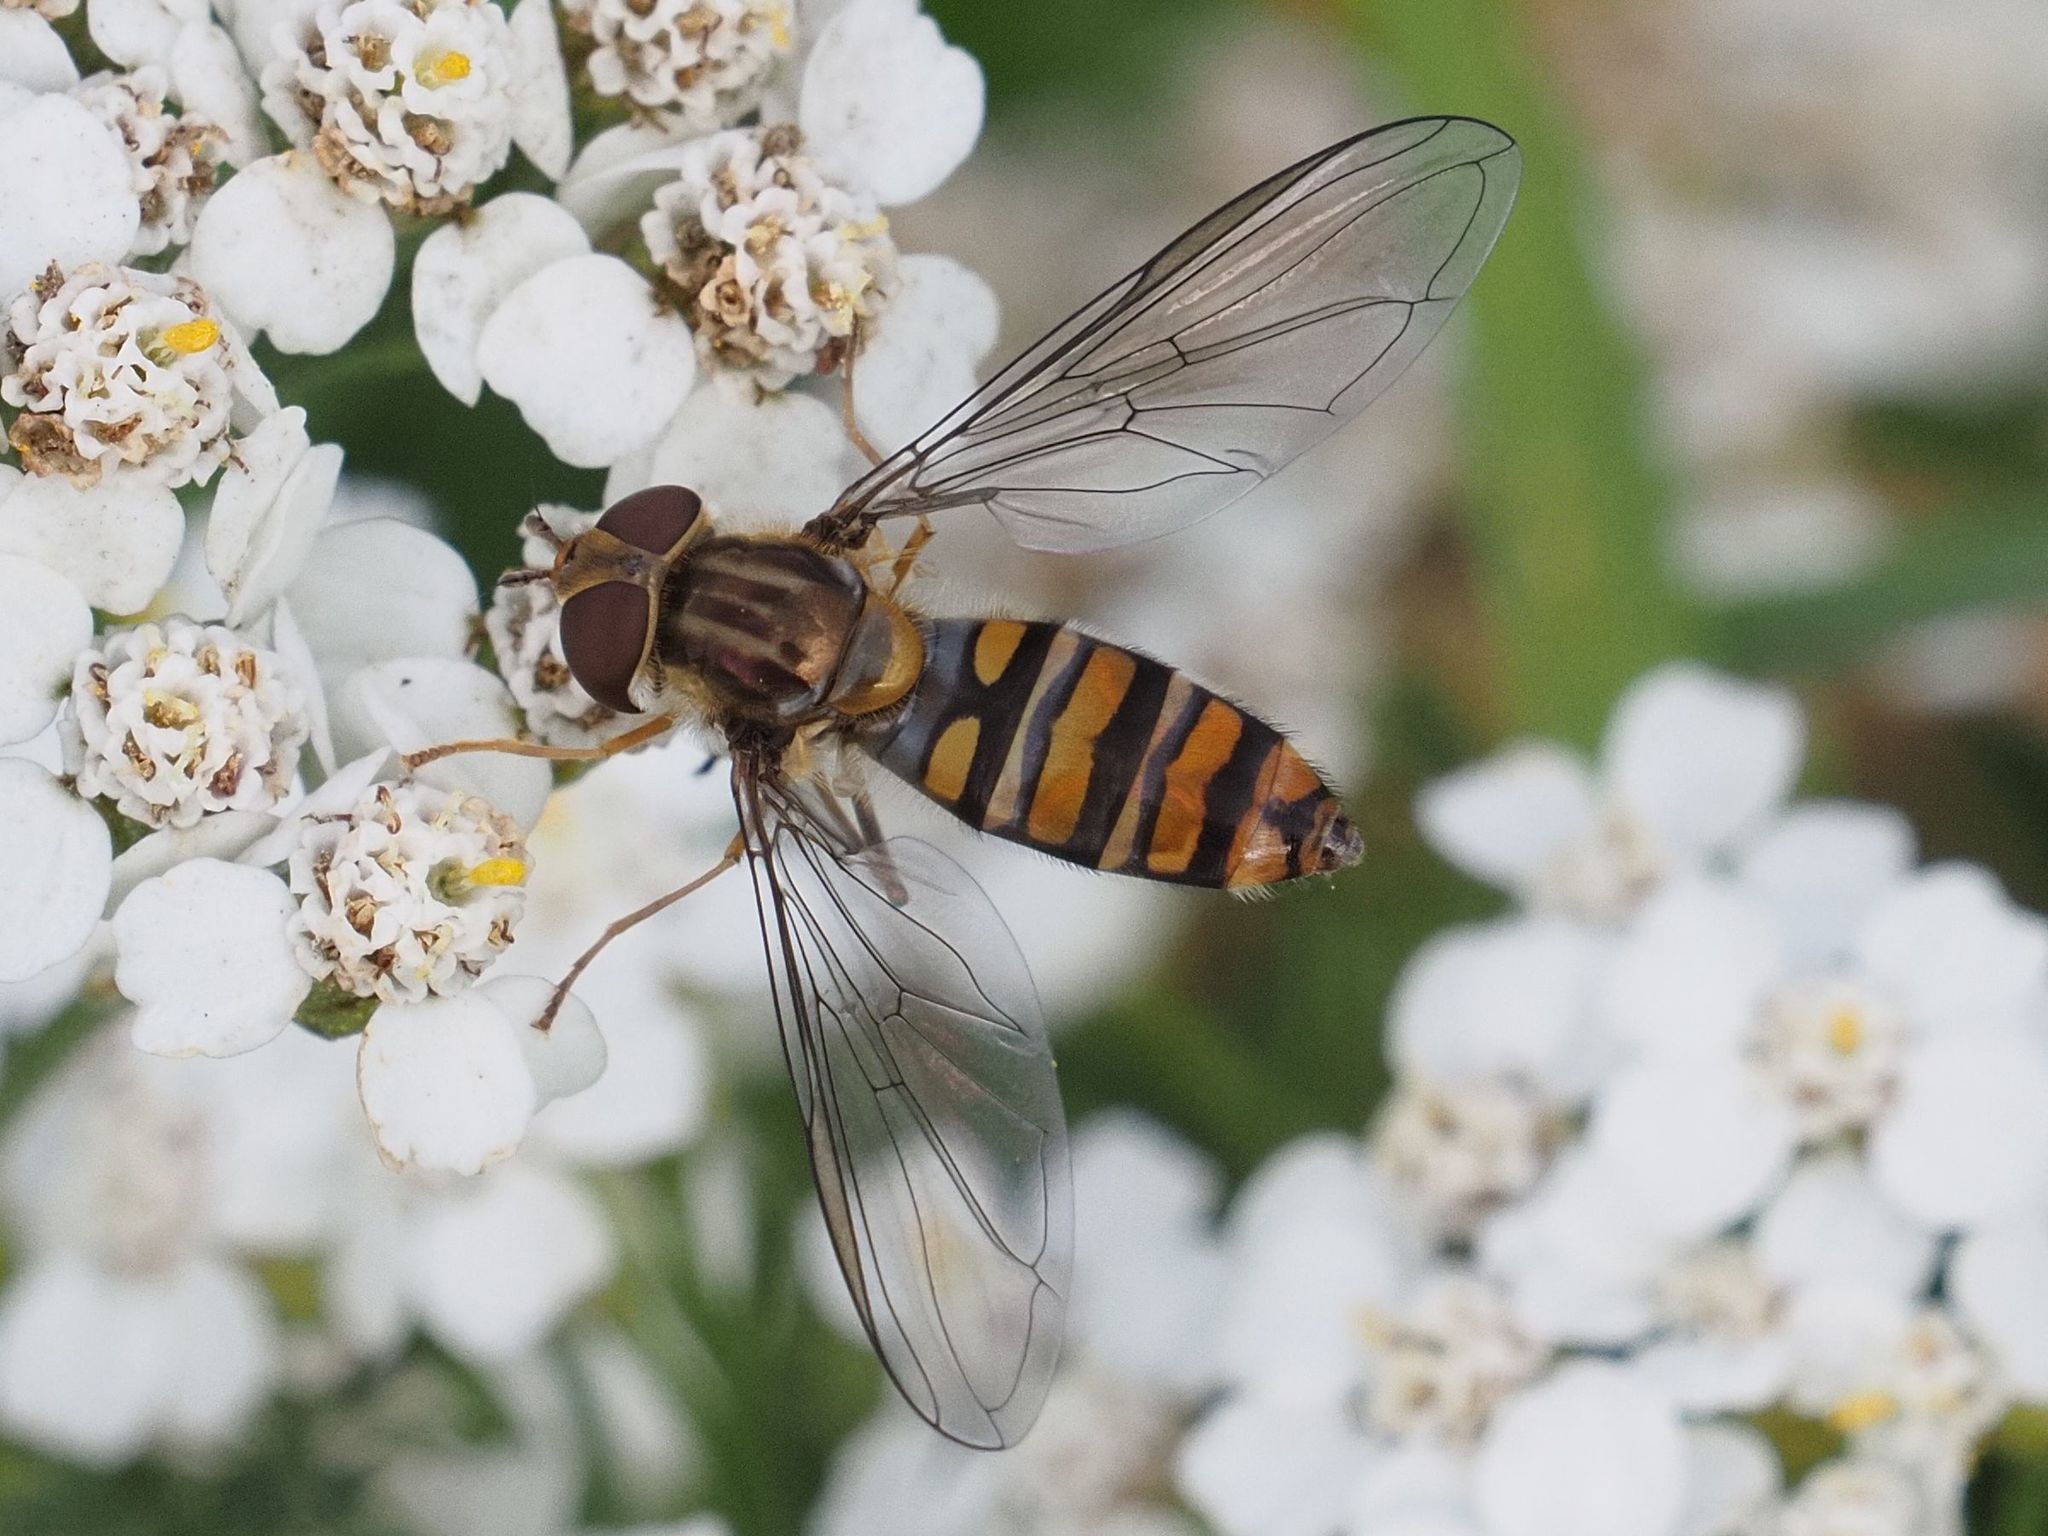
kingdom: Animalia
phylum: Arthropoda
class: Insecta
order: Diptera
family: Syrphidae
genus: Episyrphus
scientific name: Episyrphus balteatus
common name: Marmalade hoverfly
